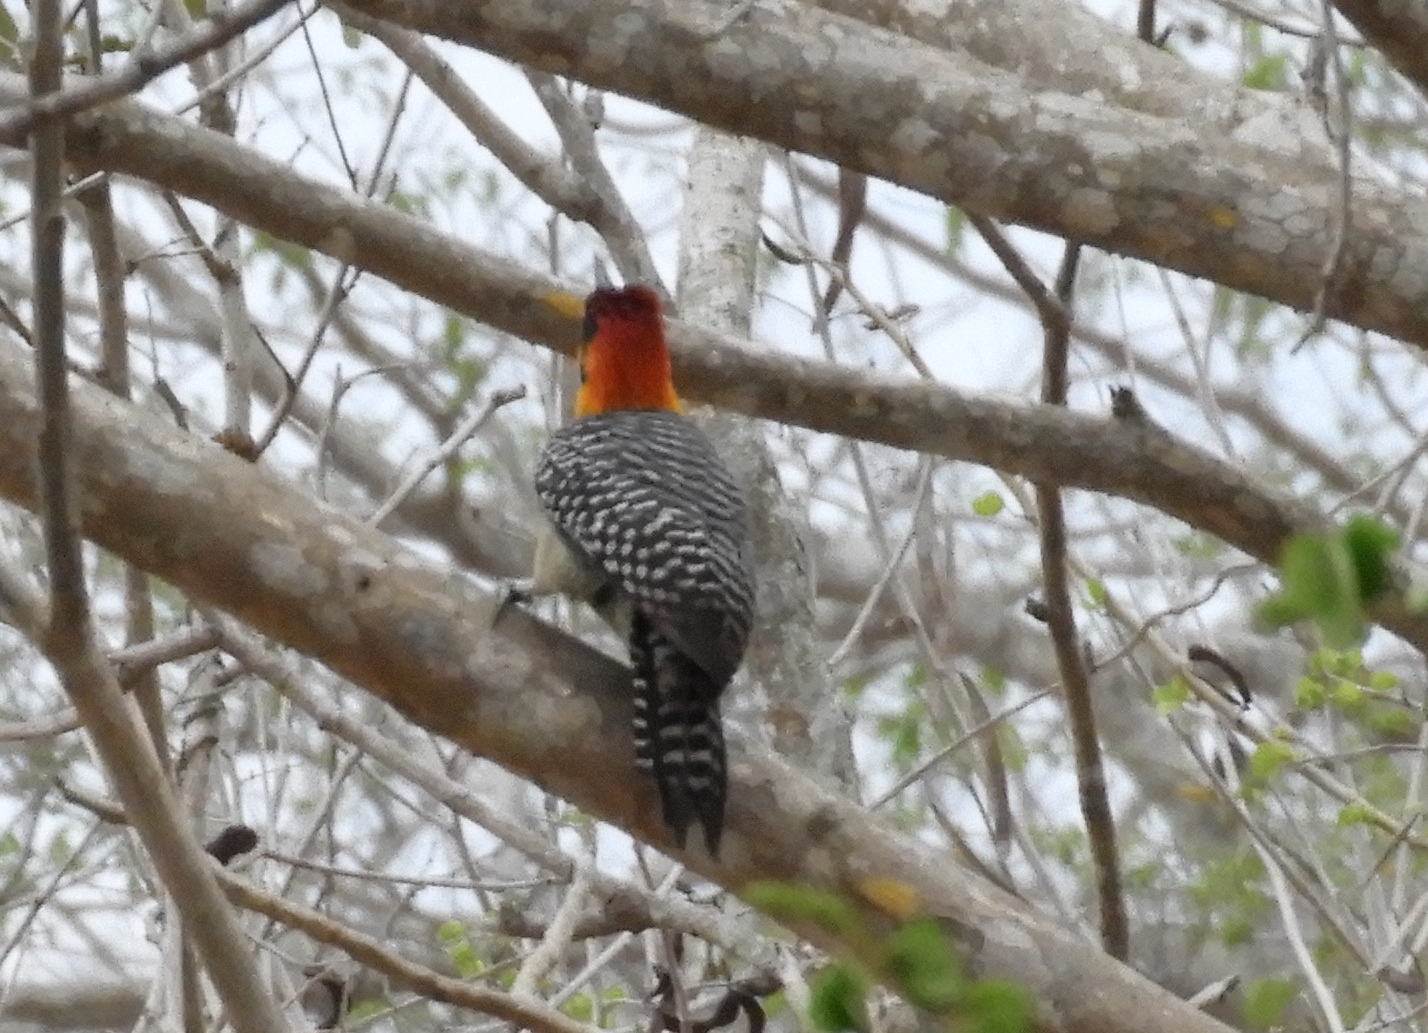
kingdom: Animalia
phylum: Chordata
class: Aves
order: Piciformes
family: Picidae
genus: Melanerpes
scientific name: Melanerpes chrysogenys
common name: Golden-cheeked woodpecker
